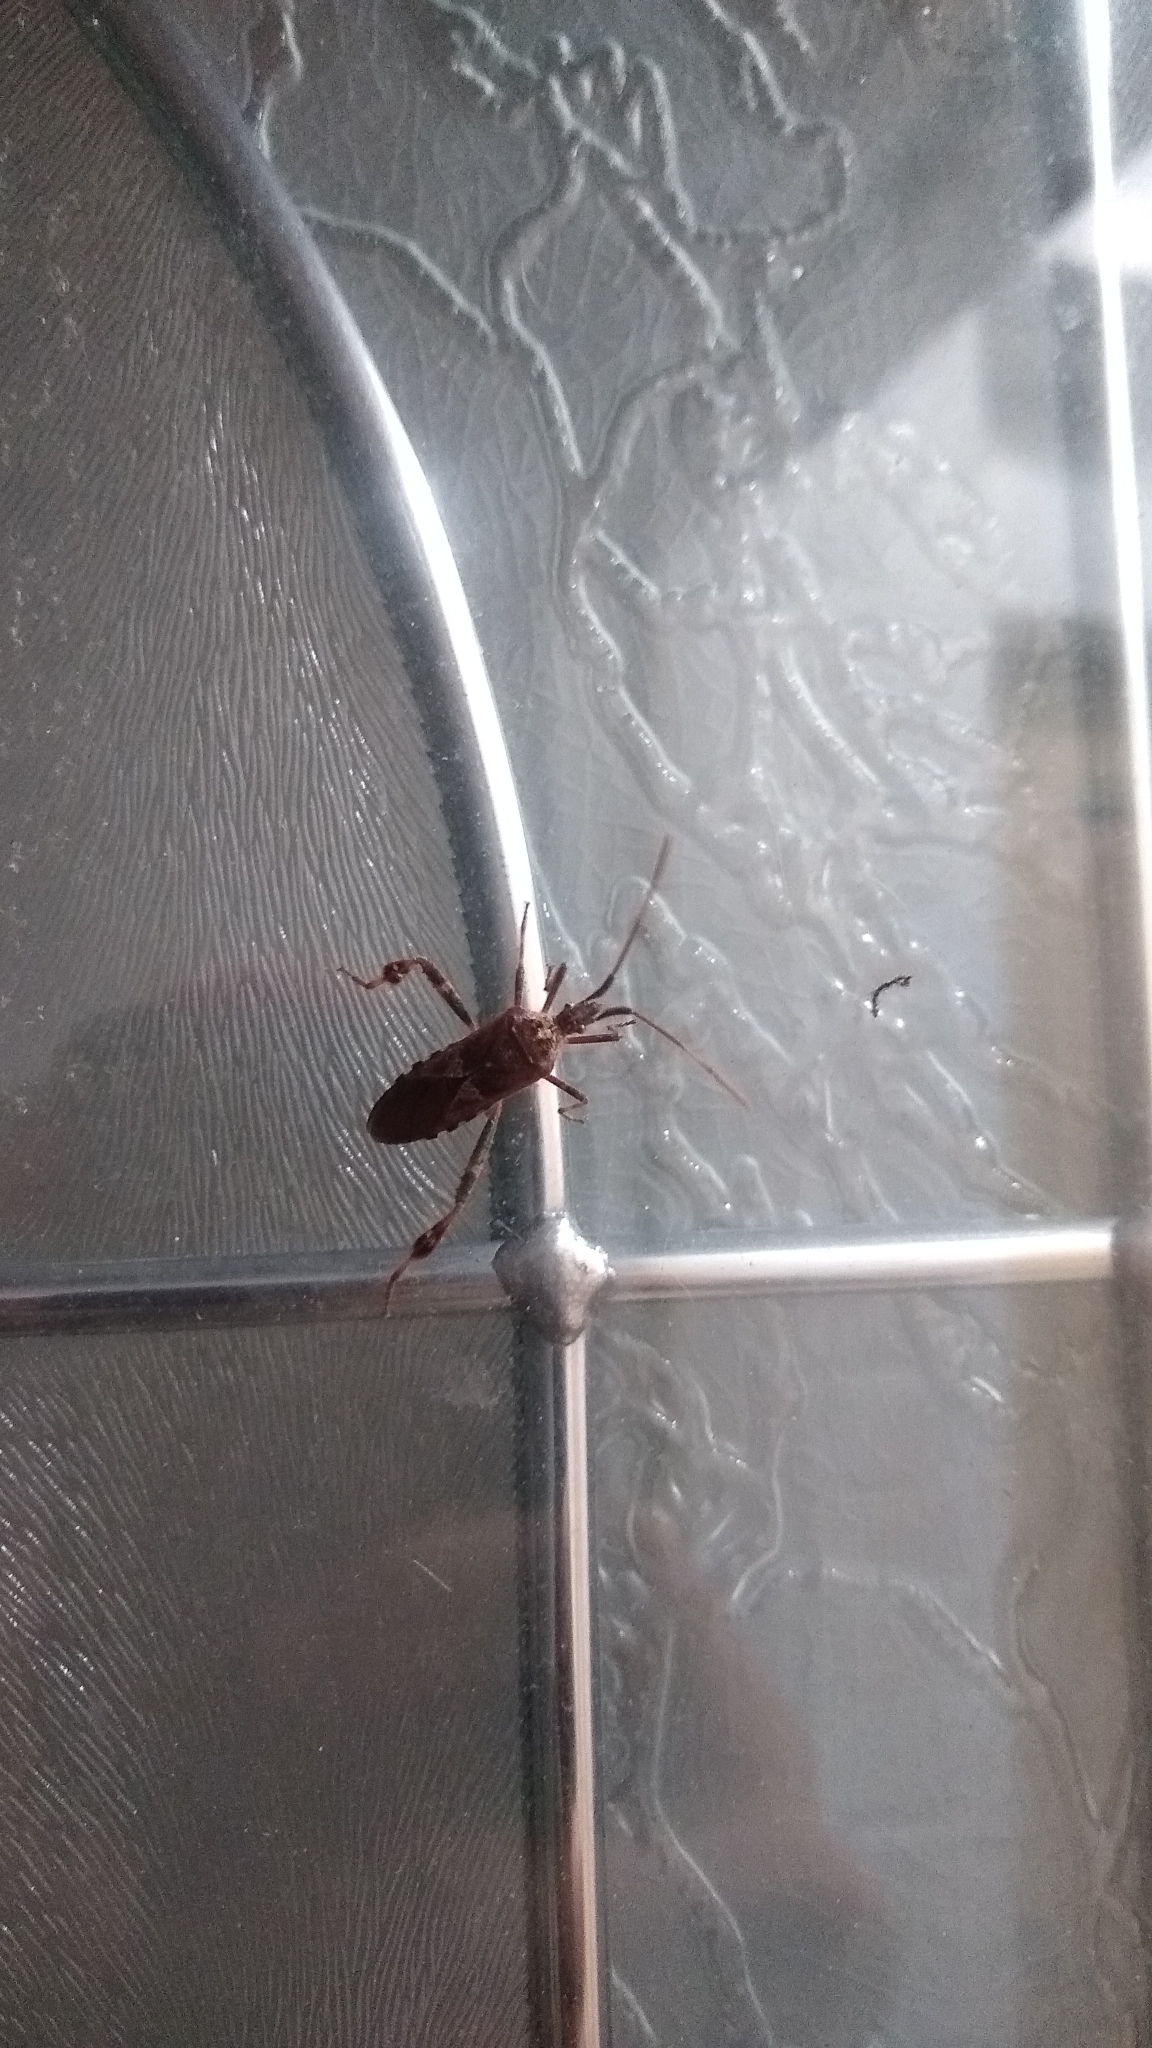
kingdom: Animalia
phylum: Arthropoda
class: Insecta
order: Hemiptera
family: Coreidae
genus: Leptoglossus
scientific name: Leptoglossus occidentalis
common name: Western conifer-seed bug
